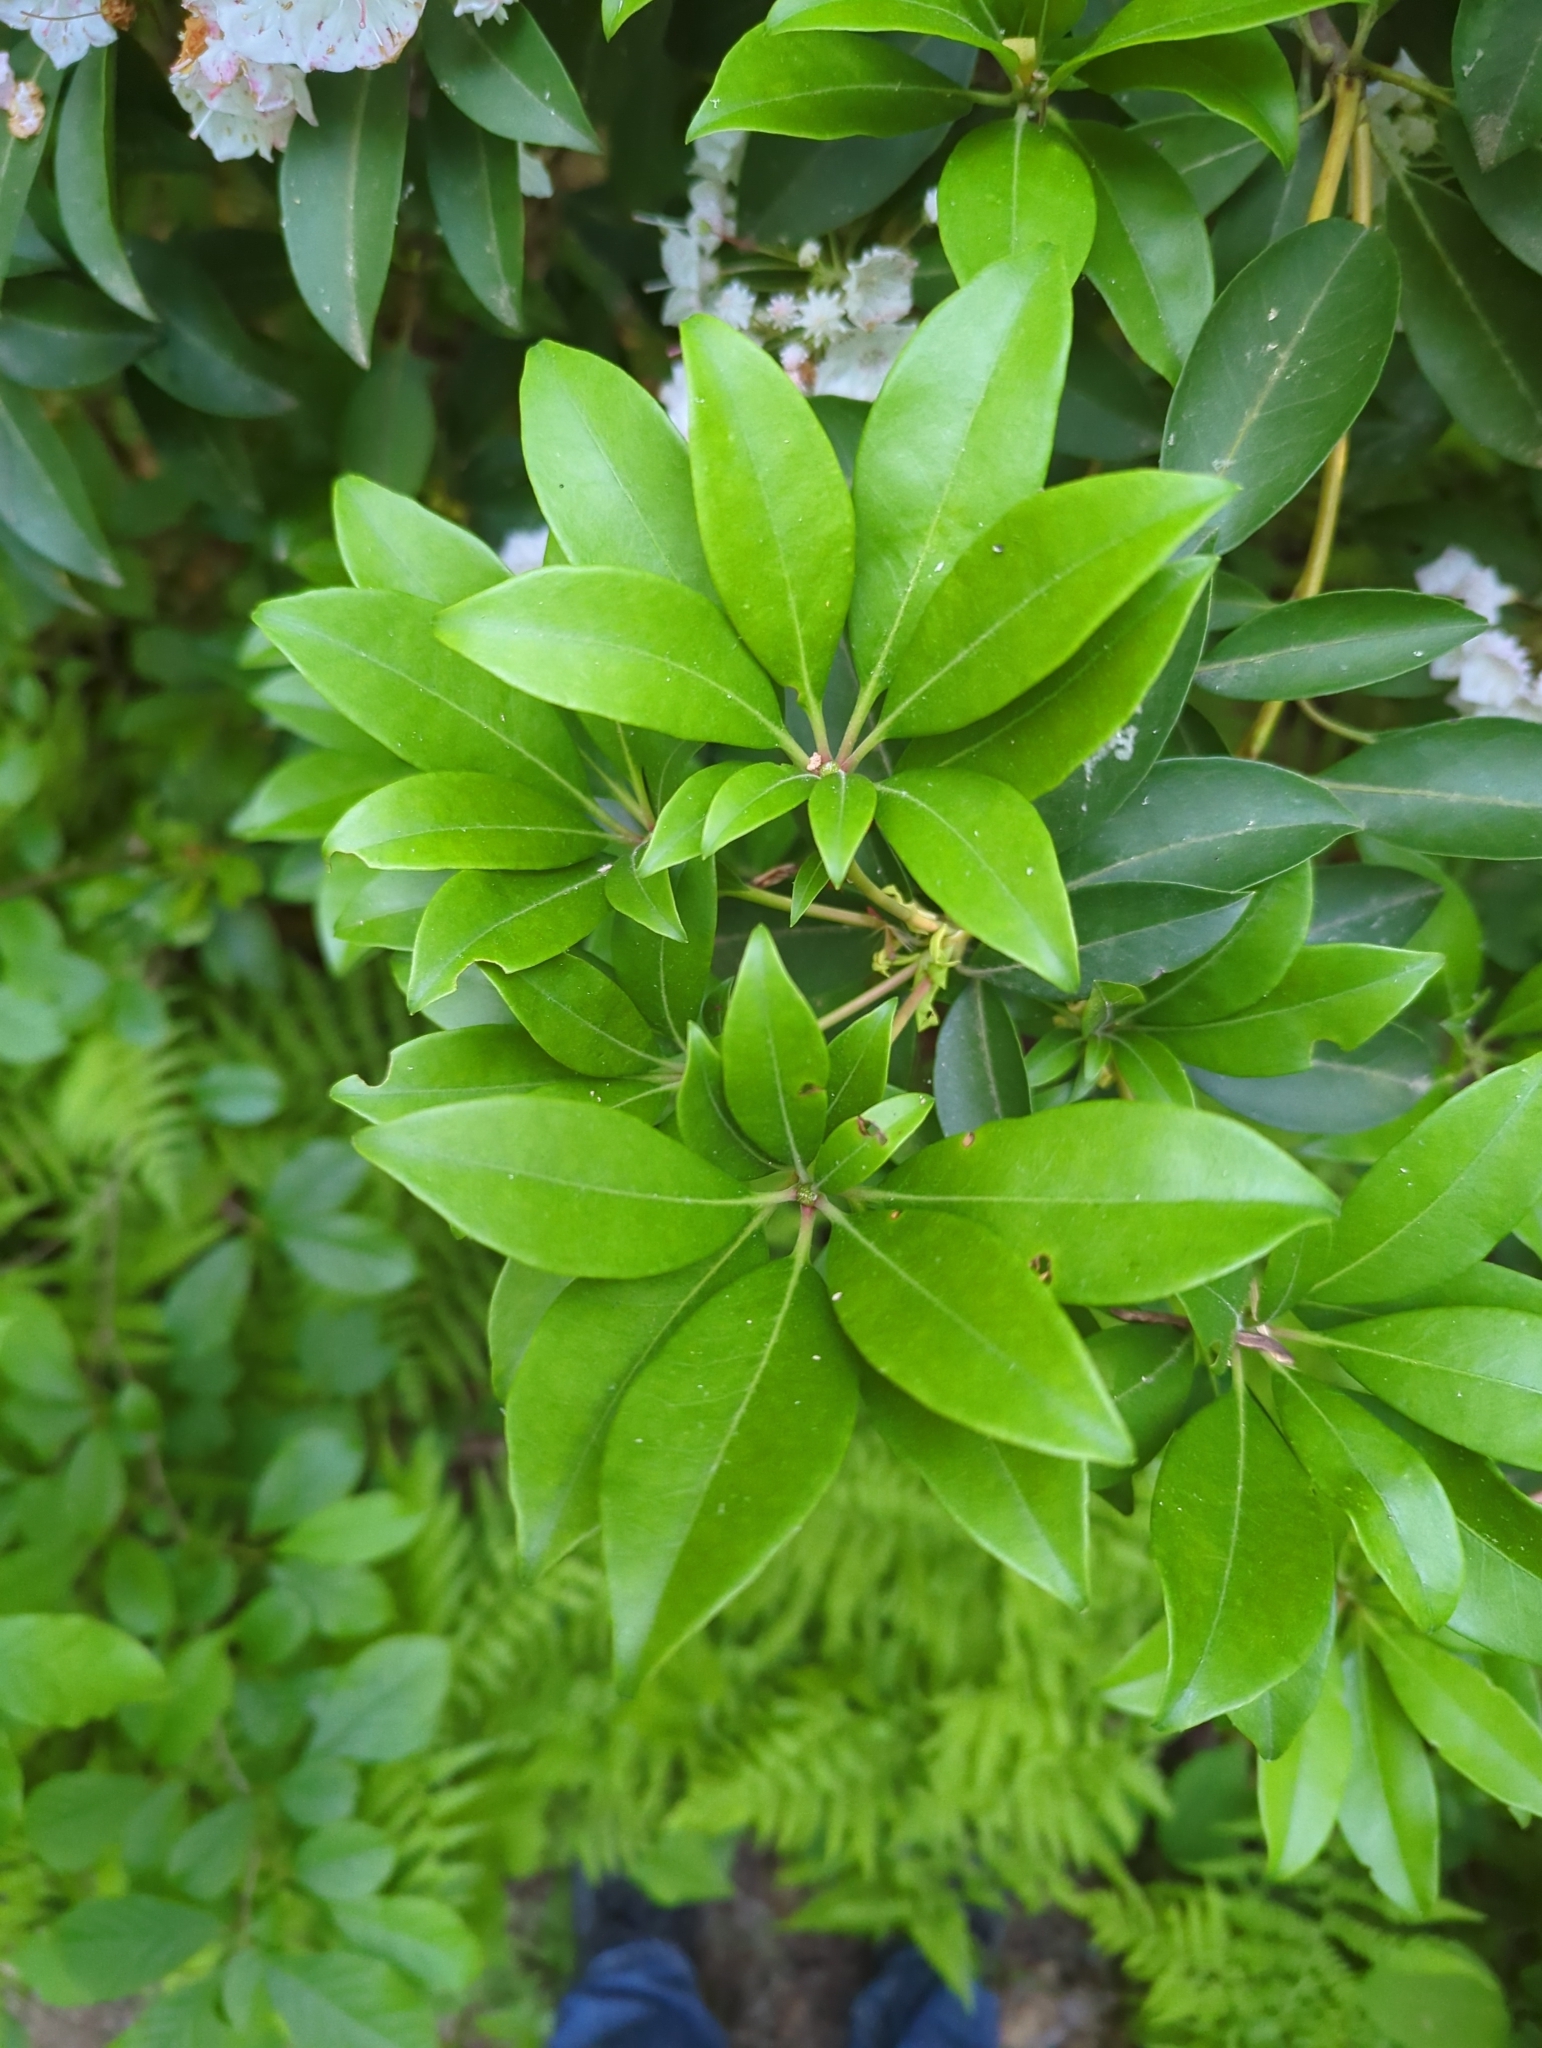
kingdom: Plantae
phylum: Tracheophyta
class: Magnoliopsida
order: Ericales
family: Ericaceae
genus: Kalmia
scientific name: Kalmia latifolia
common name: Mountain-laurel
